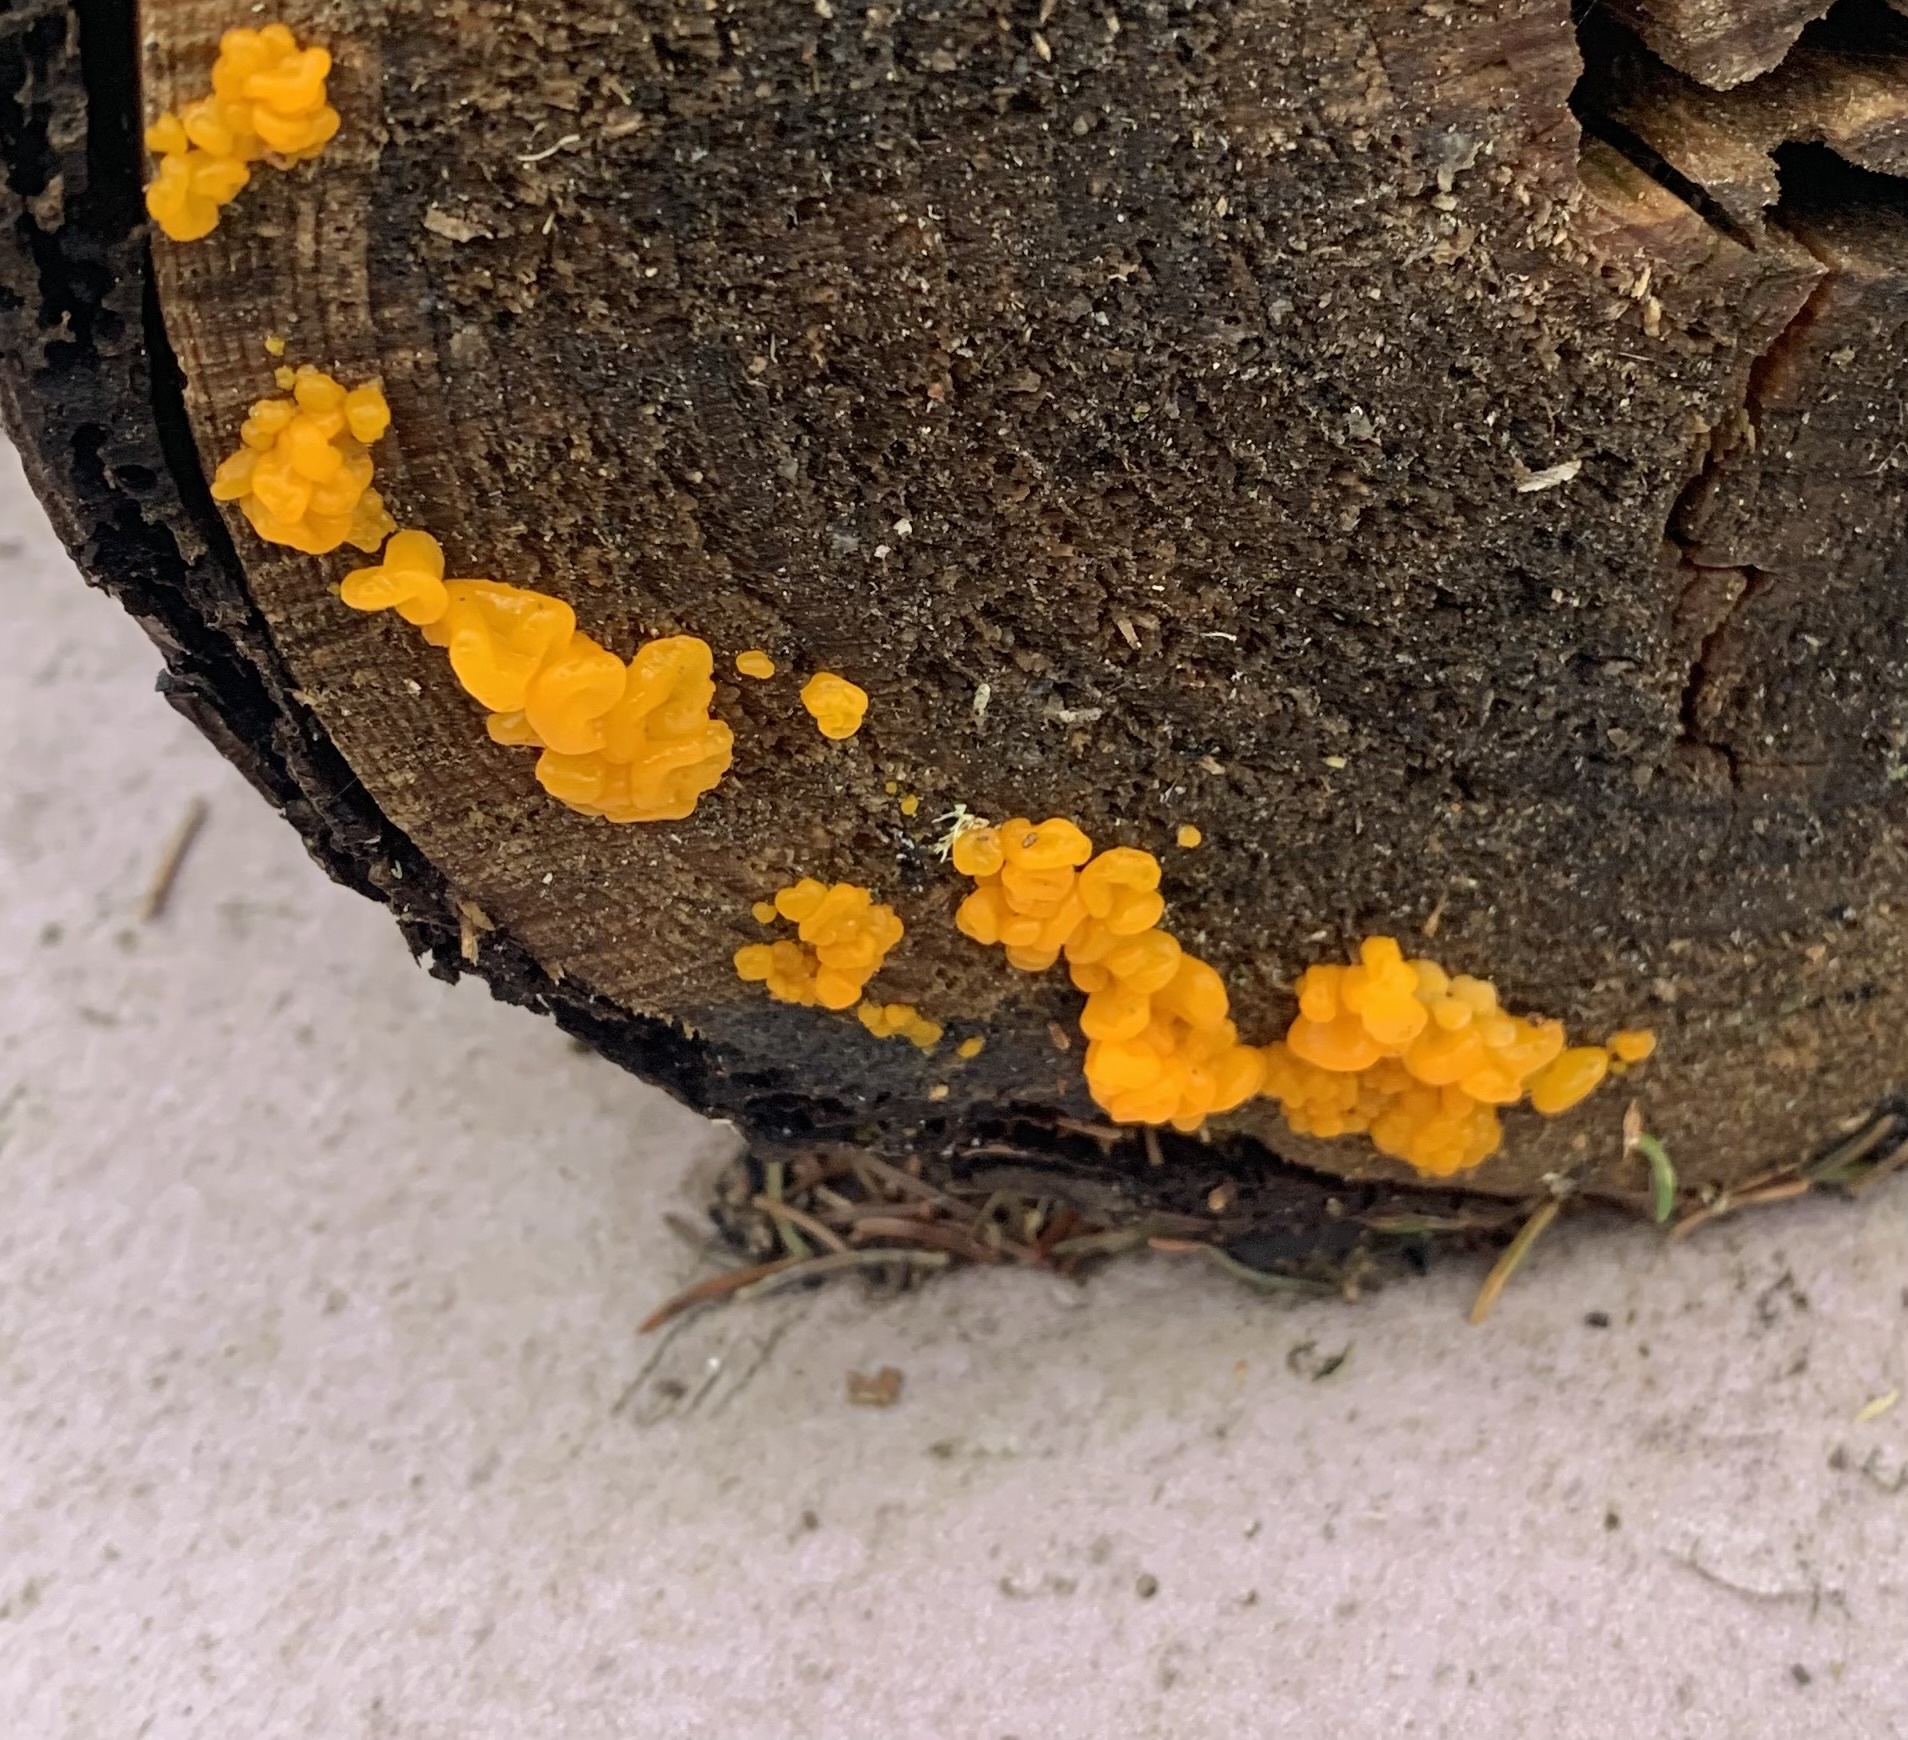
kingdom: Fungi
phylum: Basidiomycota
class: Dacrymycetes
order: Dacrymycetales
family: Dacrymycetaceae
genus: Dacrymyces
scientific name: Dacrymyces chrysospermus
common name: Orange jelly spot
